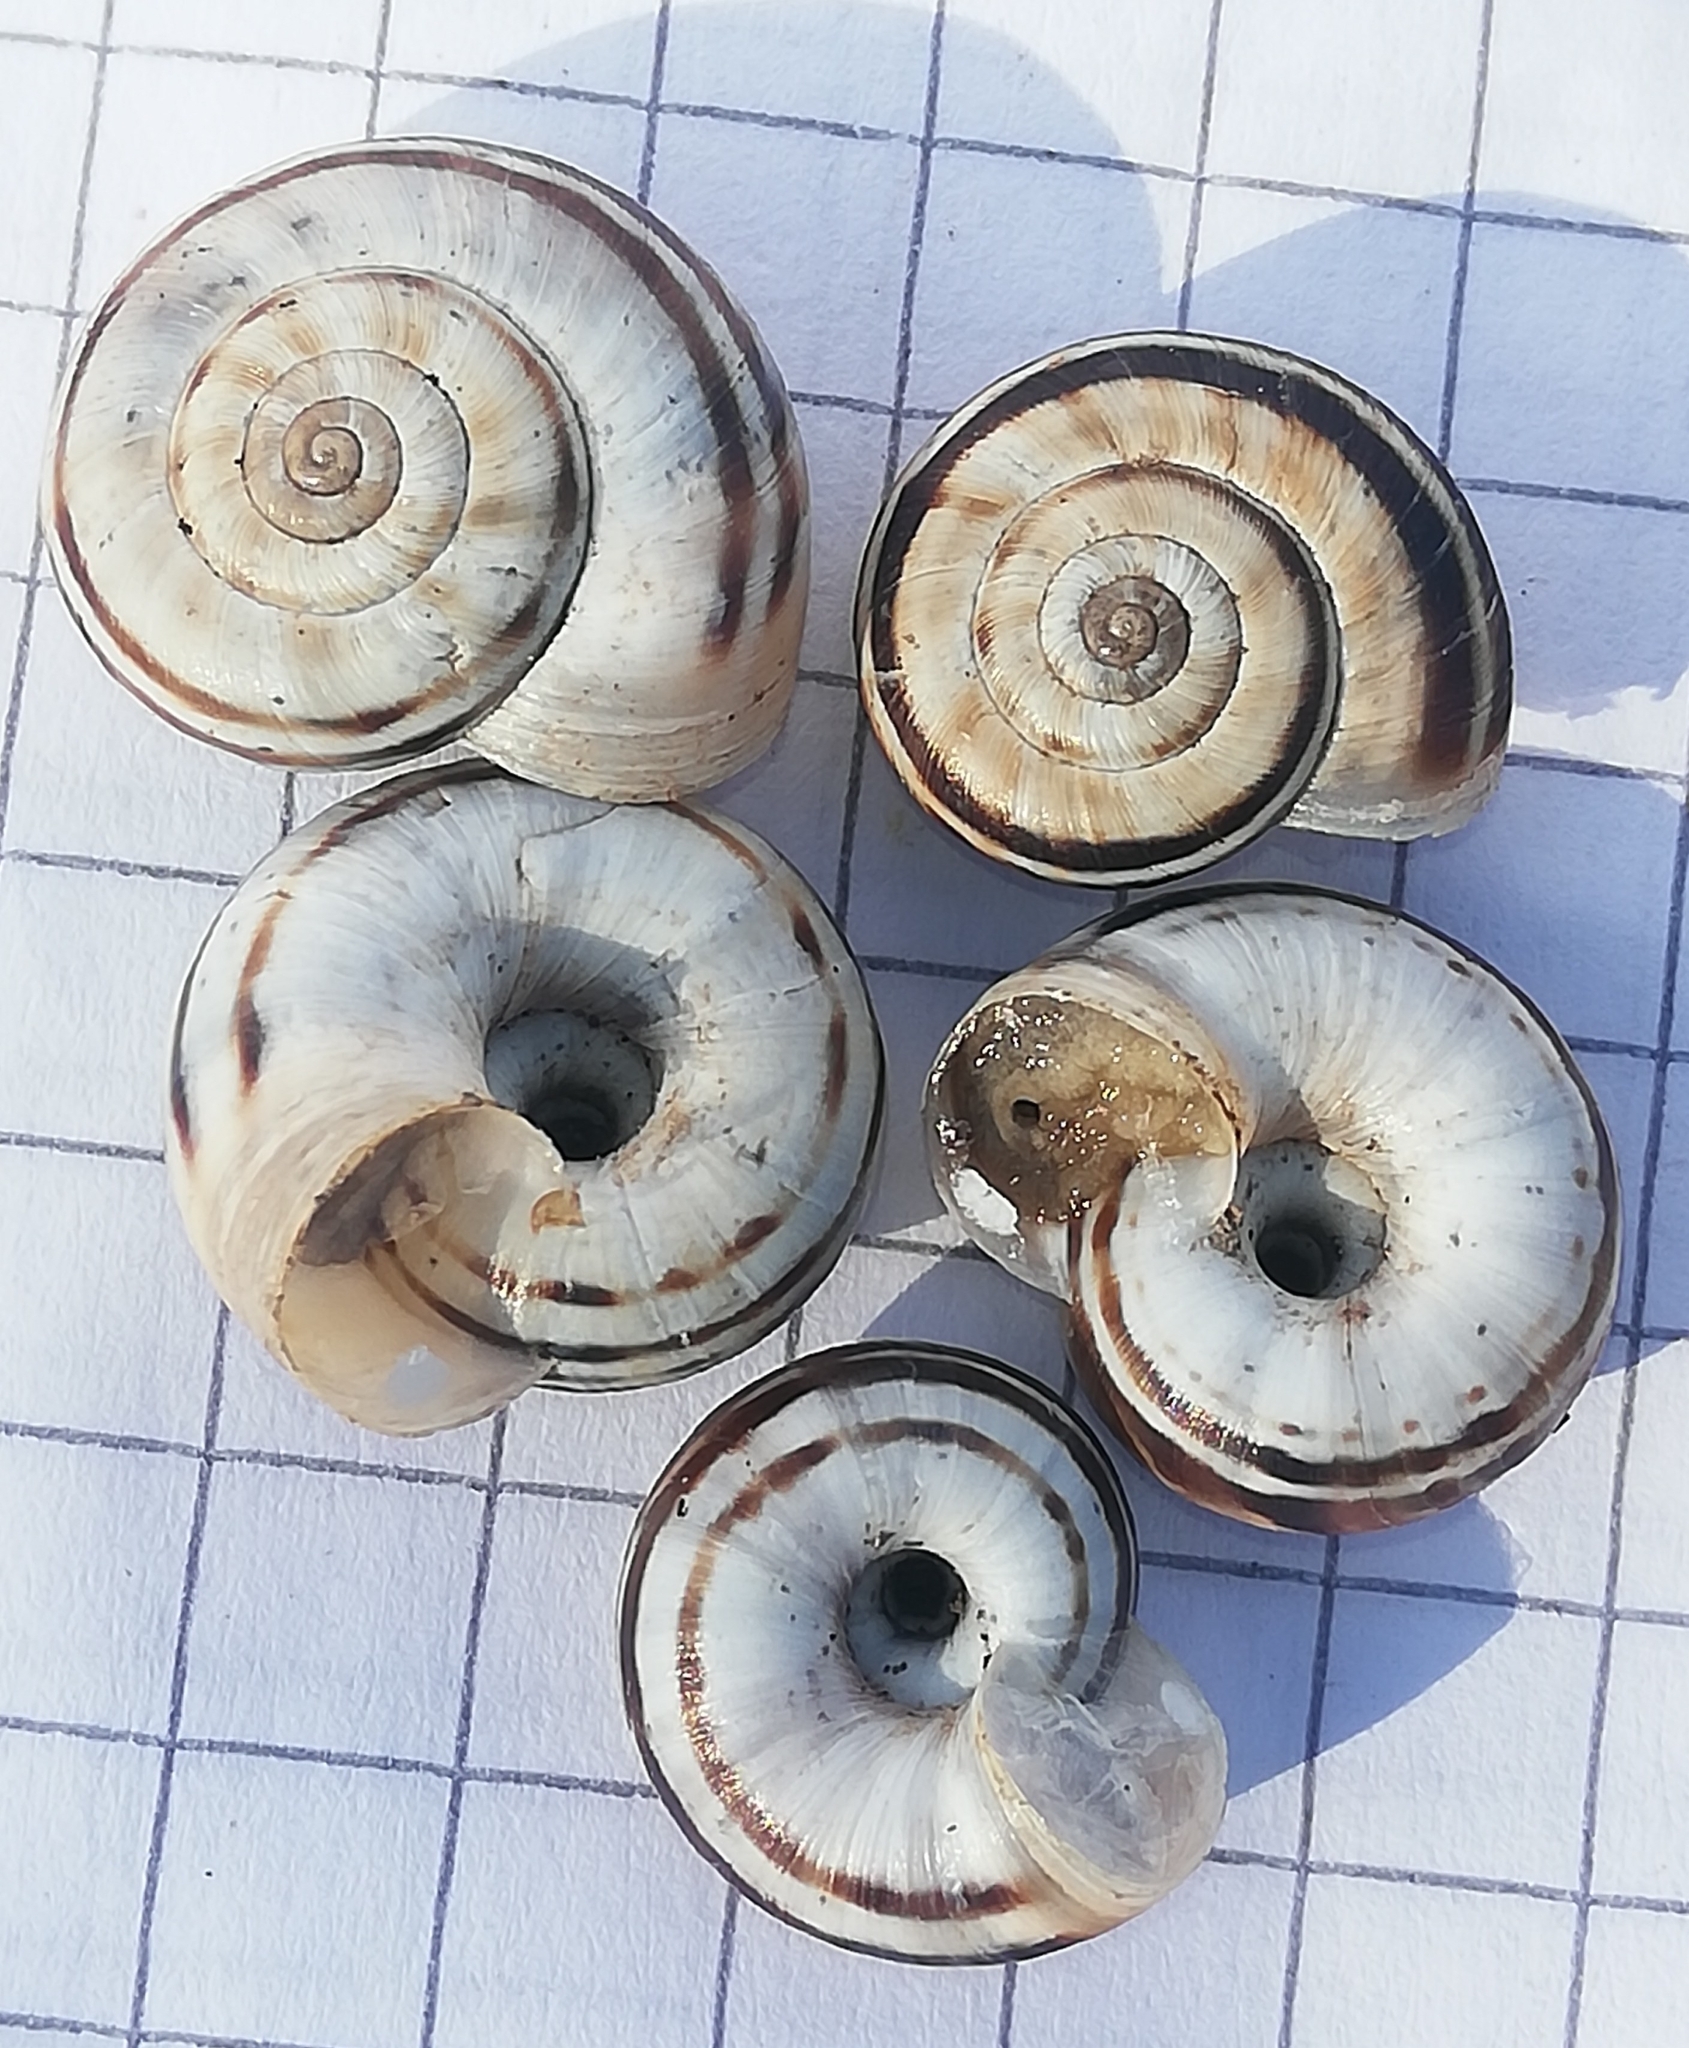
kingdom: Animalia
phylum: Mollusca
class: Gastropoda
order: Stylommatophora
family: Geomitridae
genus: Xerolenta
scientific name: Xerolenta obvia
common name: White heath snail
